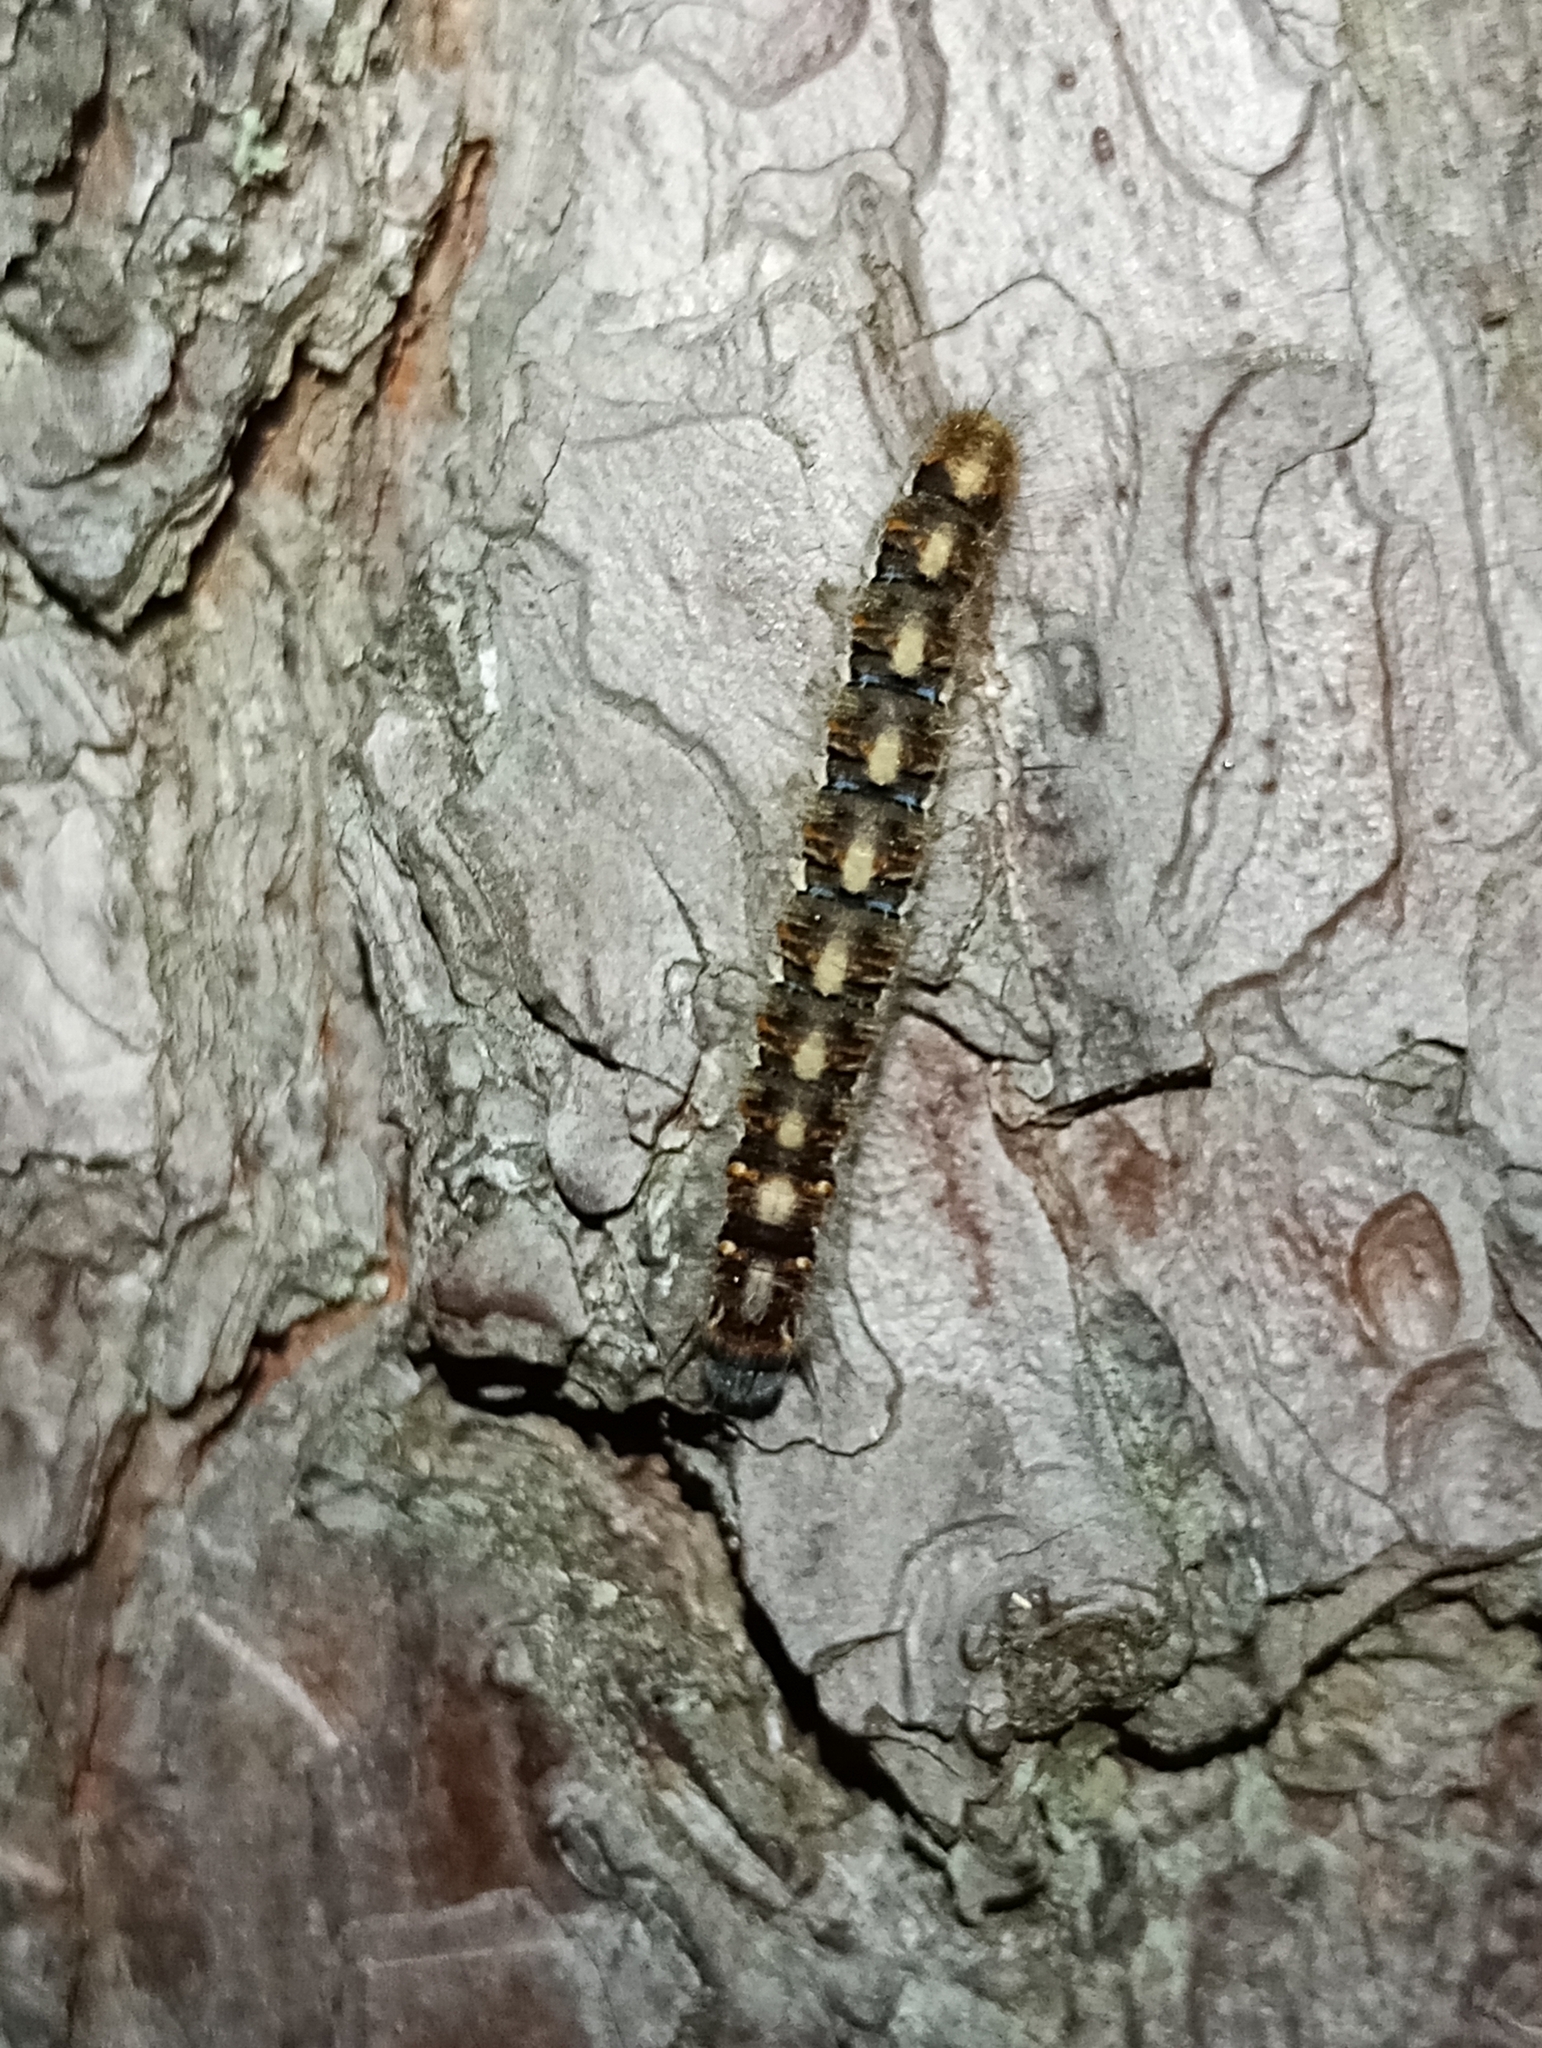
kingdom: Animalia
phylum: Arthropoda
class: Insecta
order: Lepidoptera
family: Lasiocampidae
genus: Lasiocampa
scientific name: Lasiocampa quercus
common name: Oak eggar
